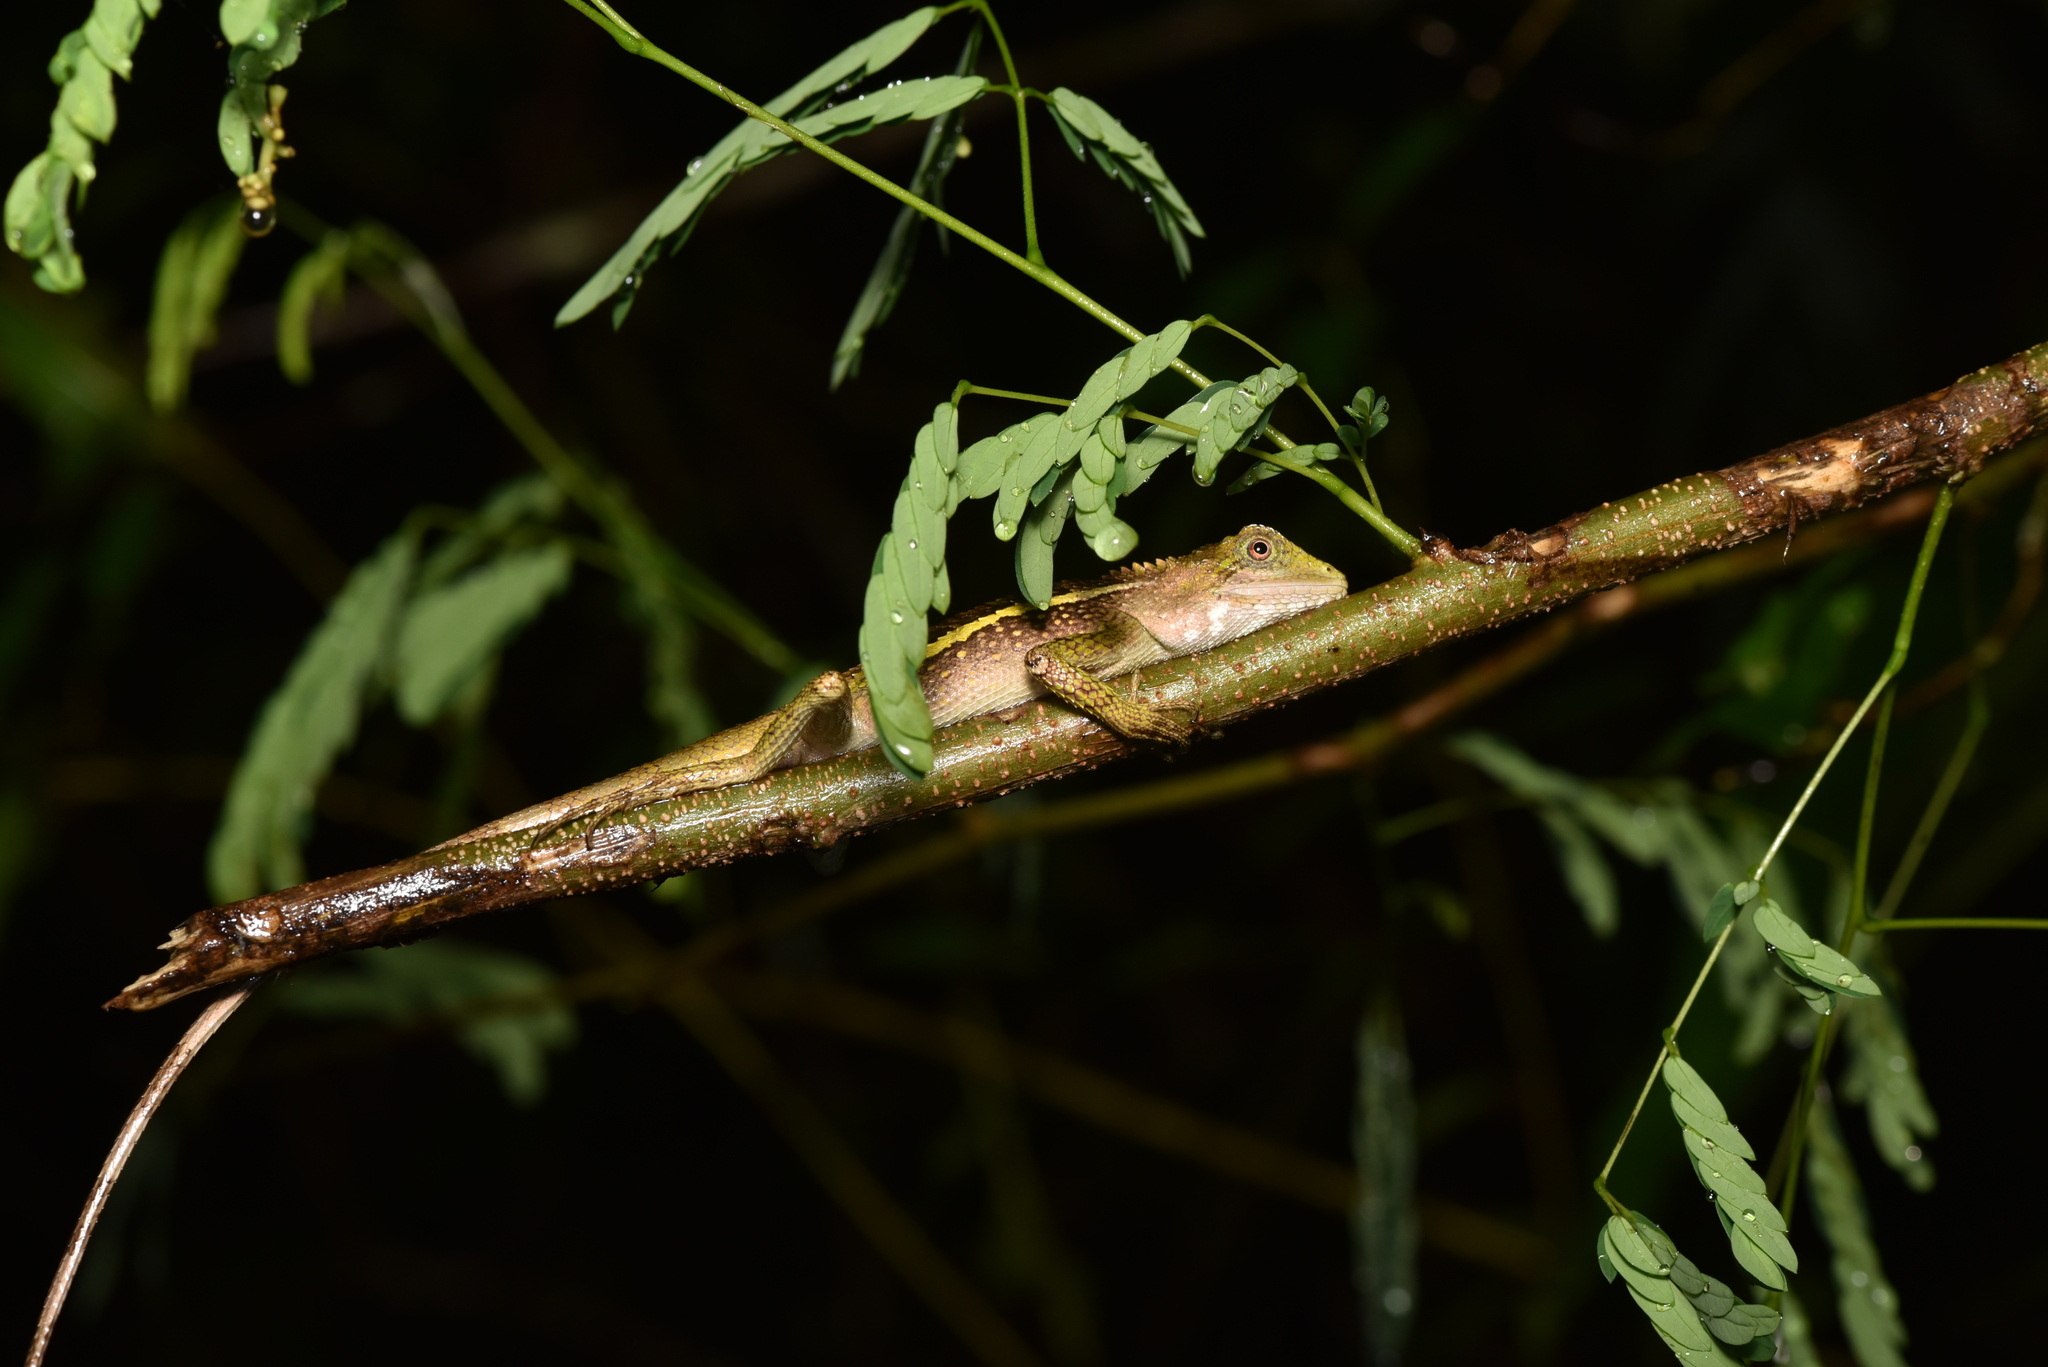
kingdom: Animalia
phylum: Chordata
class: Squamata
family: Agamidae
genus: Diploderma
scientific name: Diploderma swinhonis
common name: Taiwan japalure
